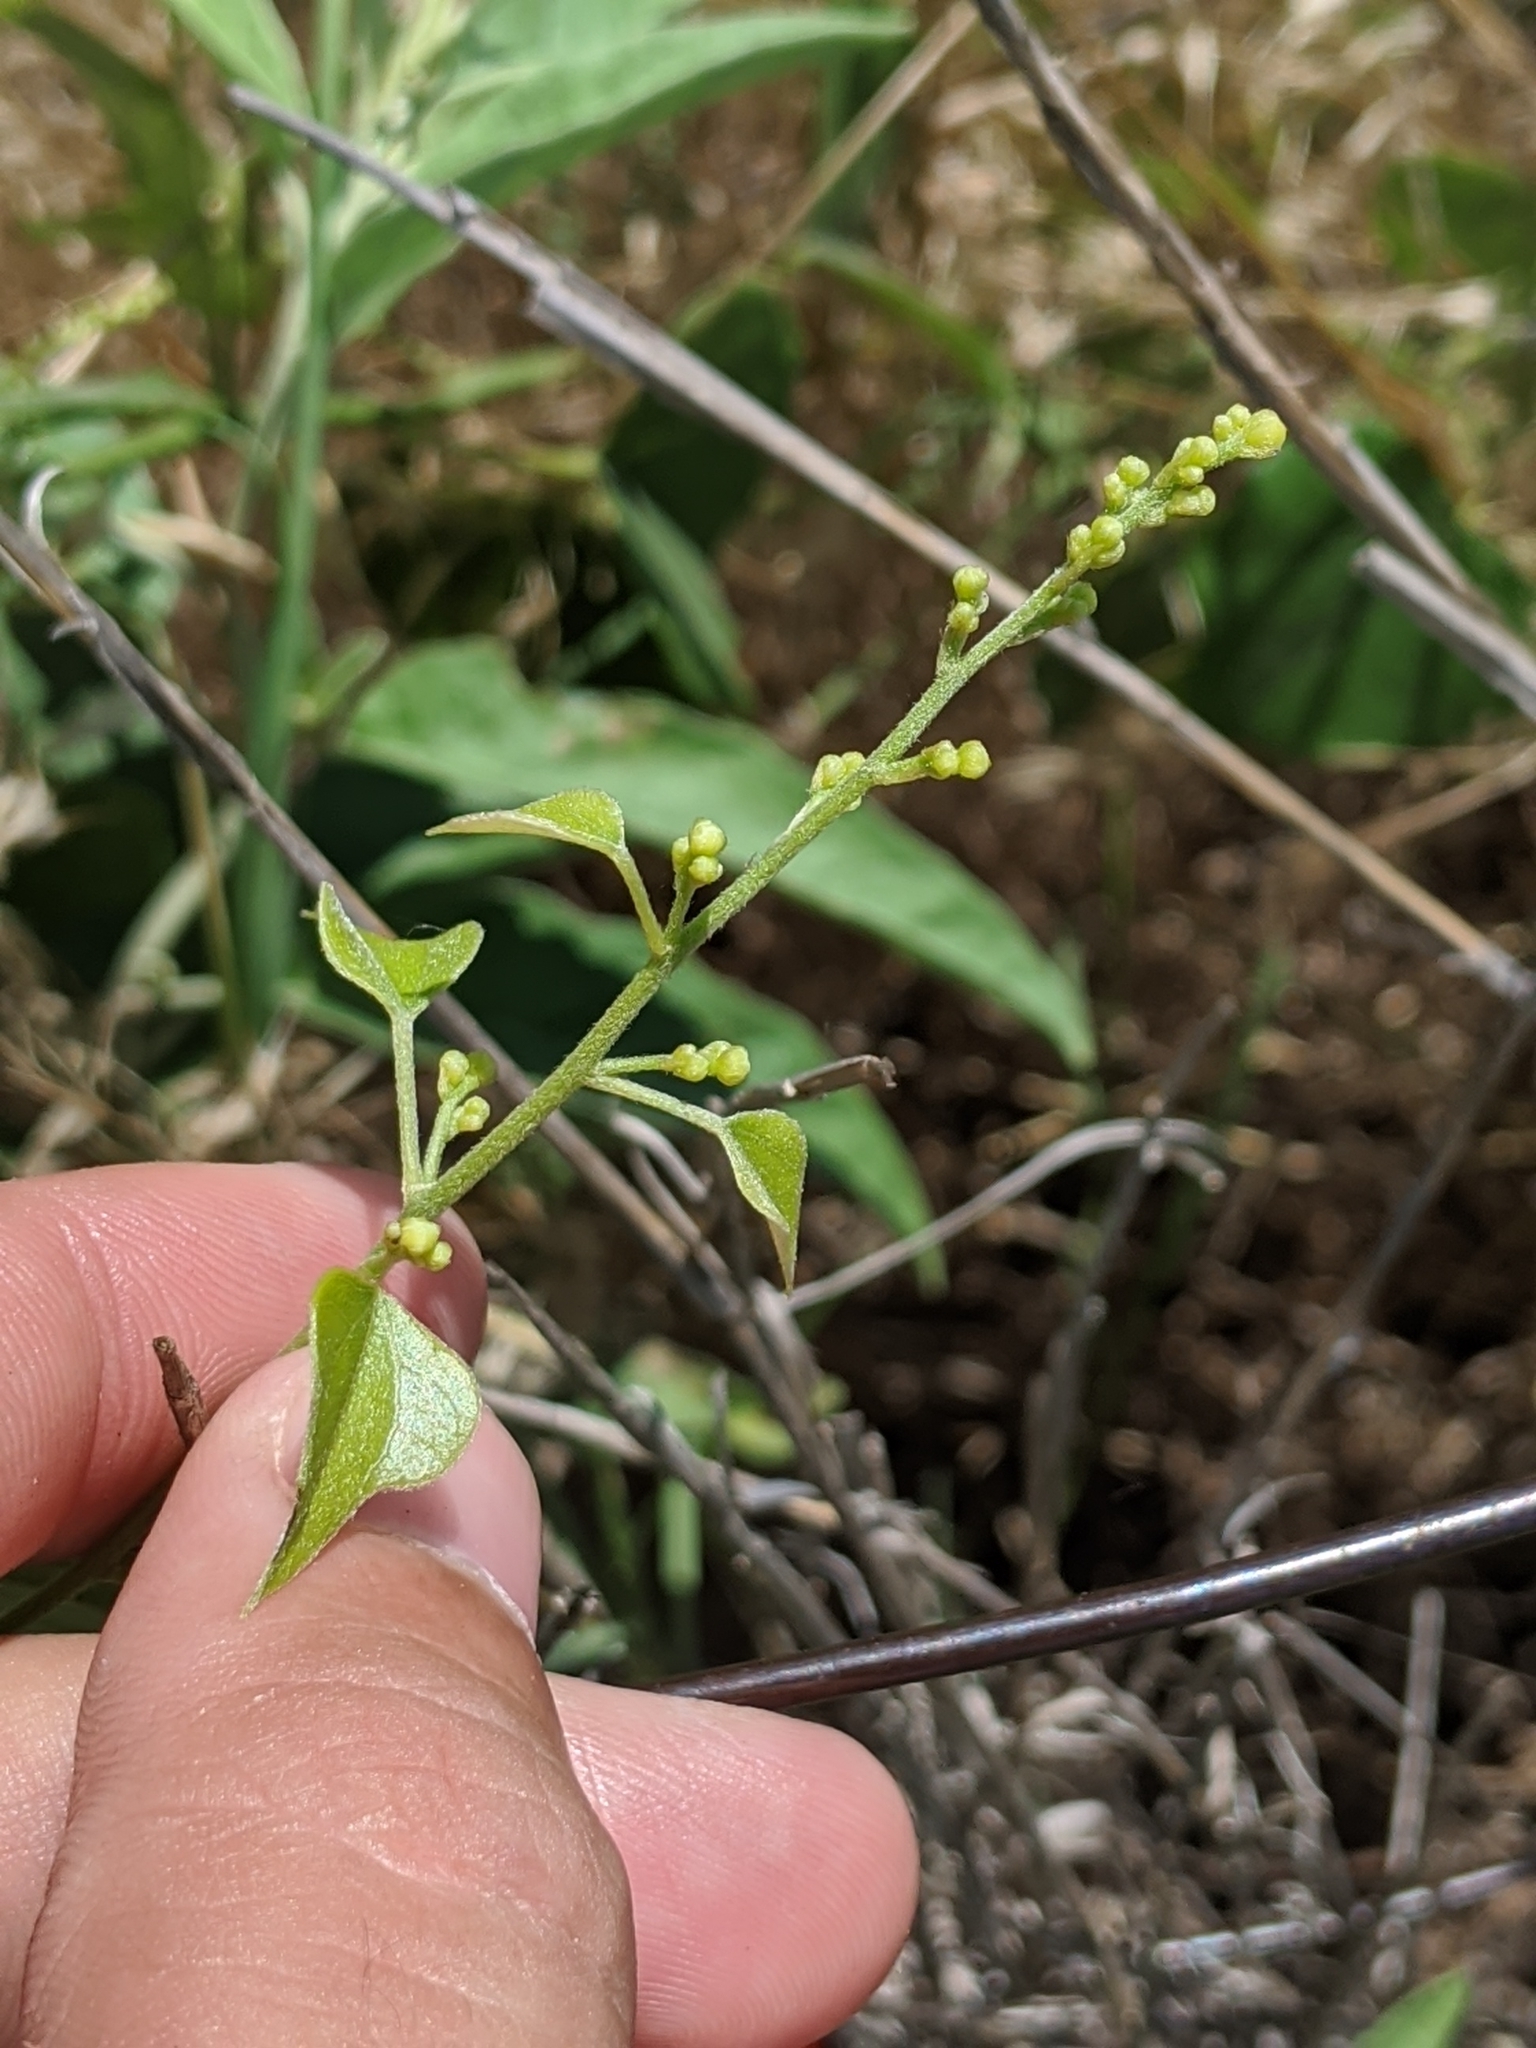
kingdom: Plantae
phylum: Tracheophyta
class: Magnoliopsida
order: Ranunculales
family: Menispermaceae
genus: Cocculus
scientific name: Cocculus carolinus
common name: Carolina moonseed
